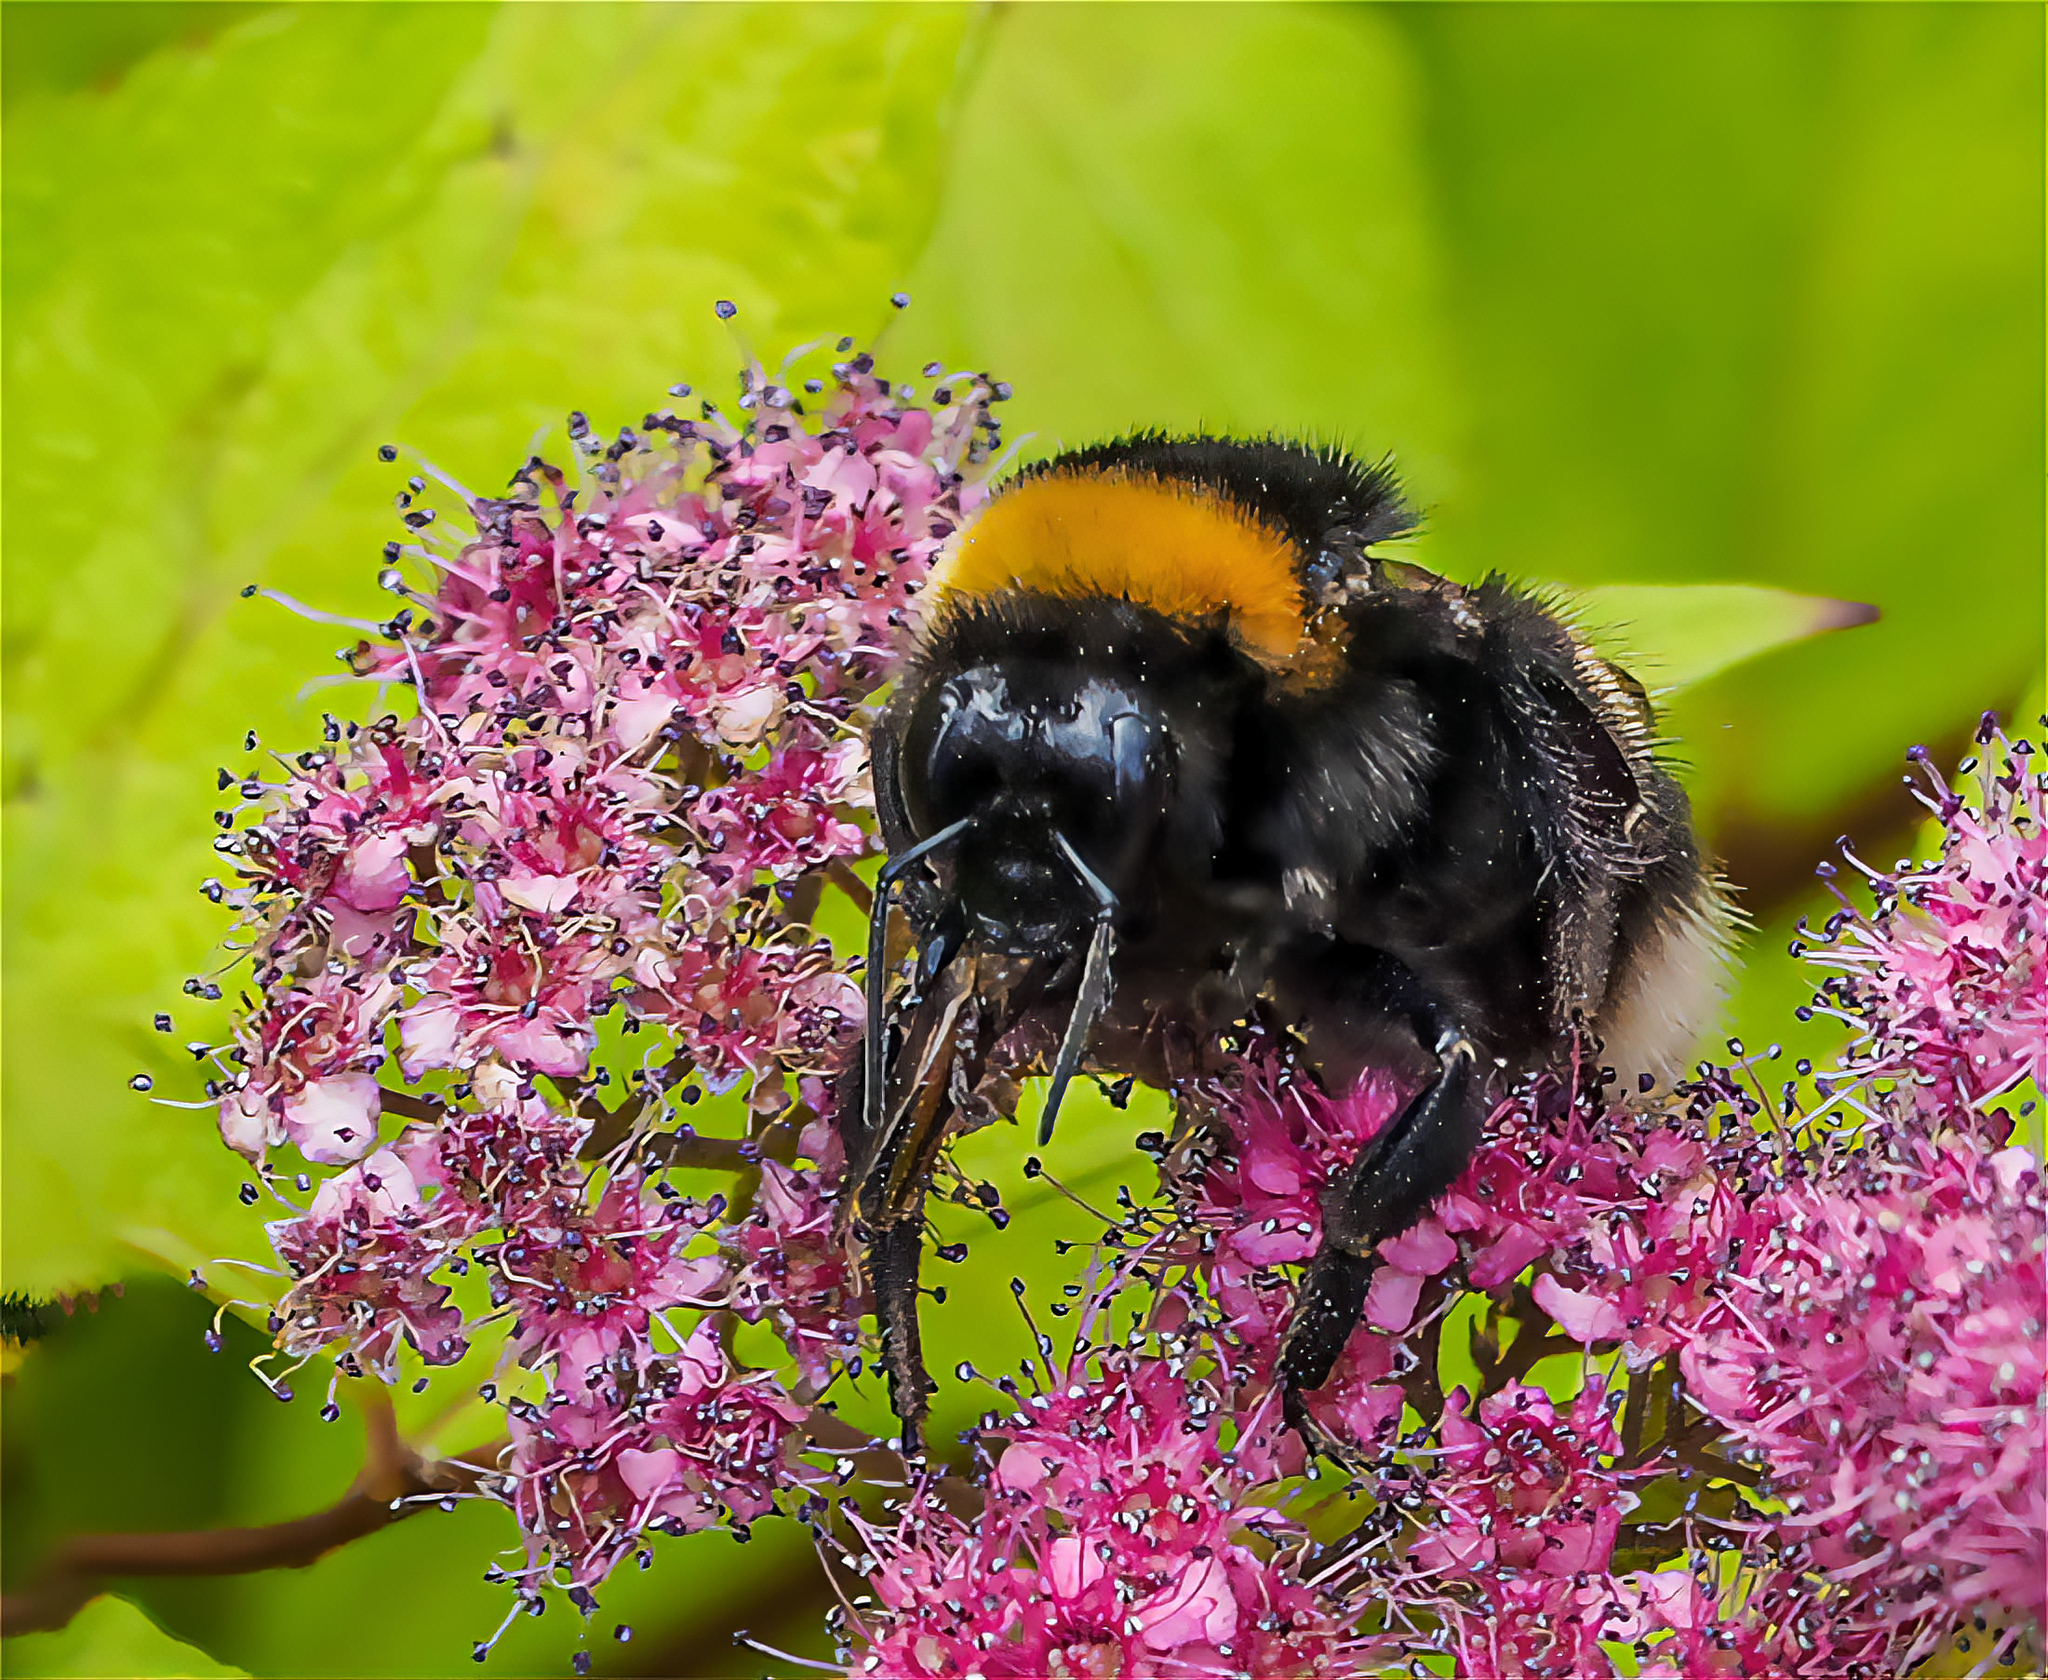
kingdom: Animalia
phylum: Arthropoda
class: Insecta
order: Hymenoptera
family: Apidae
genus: Bombus
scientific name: Bombus
